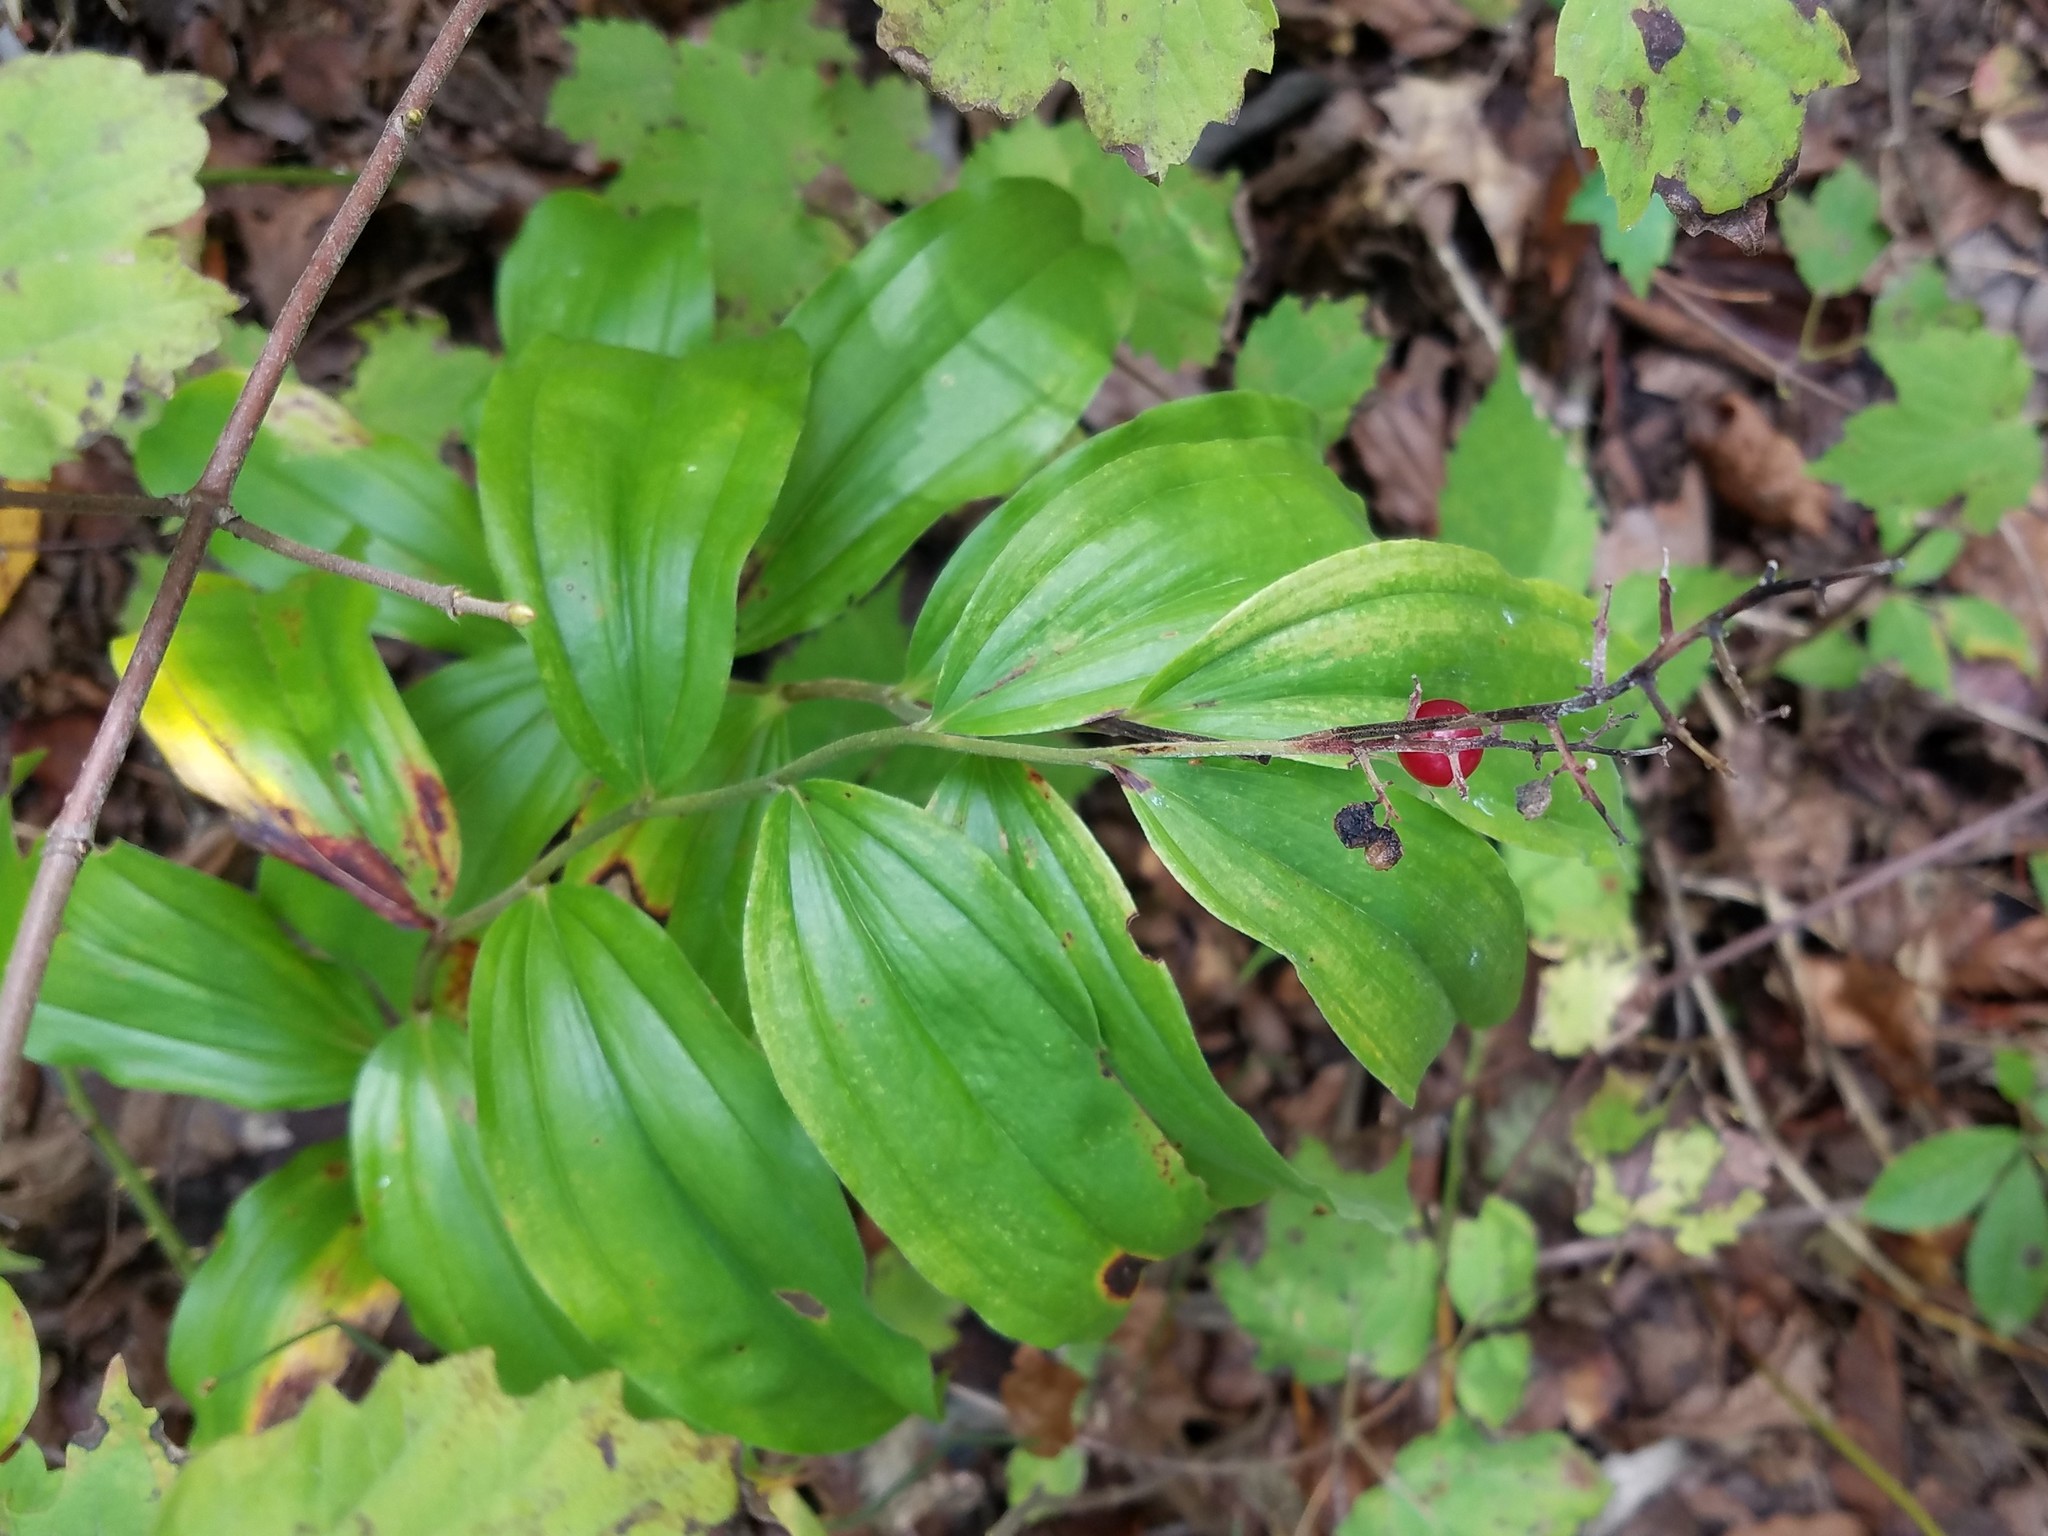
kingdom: Plantae
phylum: Tracheophyta
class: Liliopsida
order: Asparagales
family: Asparagaceae
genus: Maianthemum
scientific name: Maianthemum racemosum
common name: False spikenard
